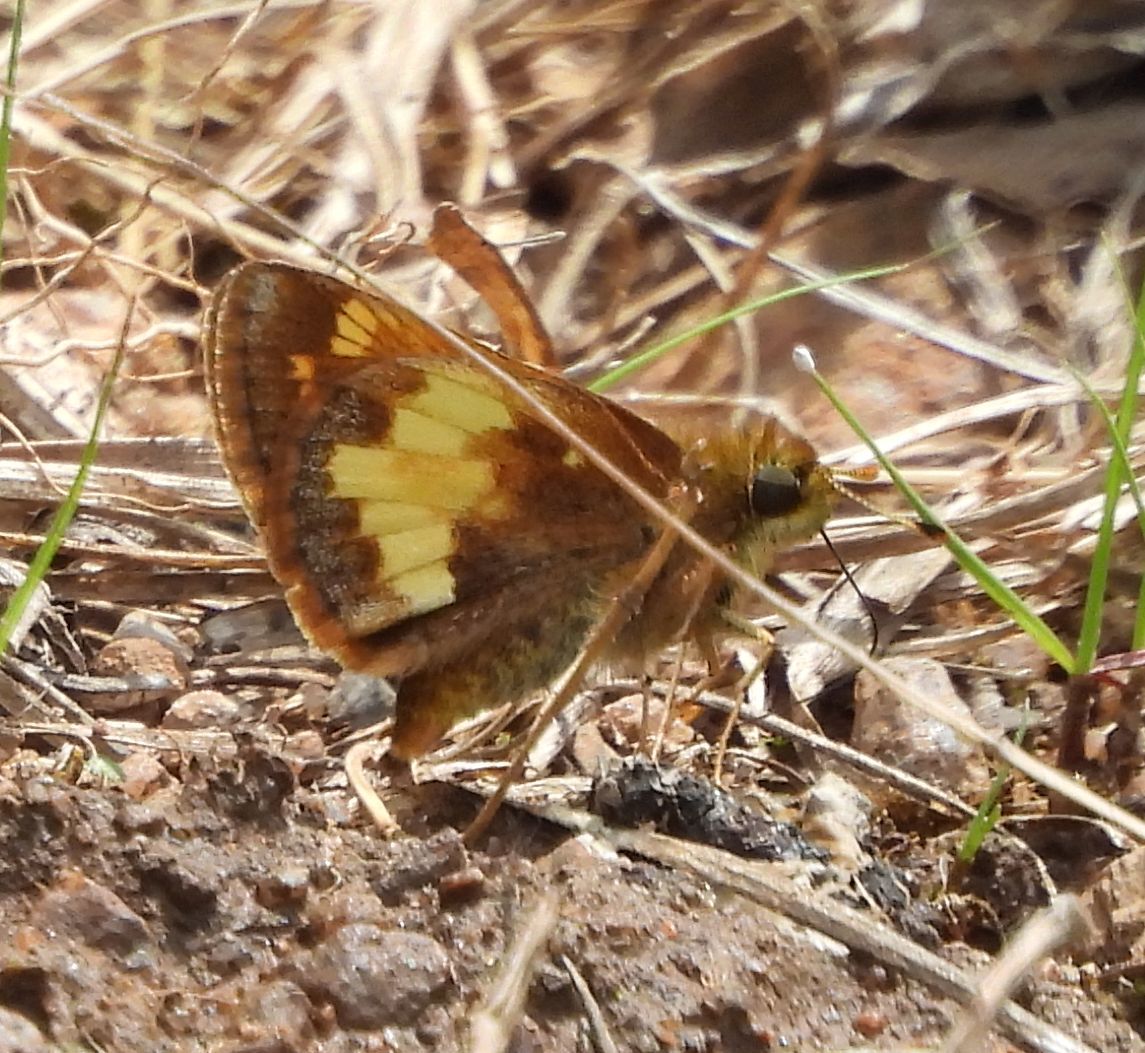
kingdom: Animalia
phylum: Arthropoda
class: Insecta
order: Lepidoptera
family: Hesperiidae
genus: Lon
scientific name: Lon hobomok
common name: Hobomok skipper
